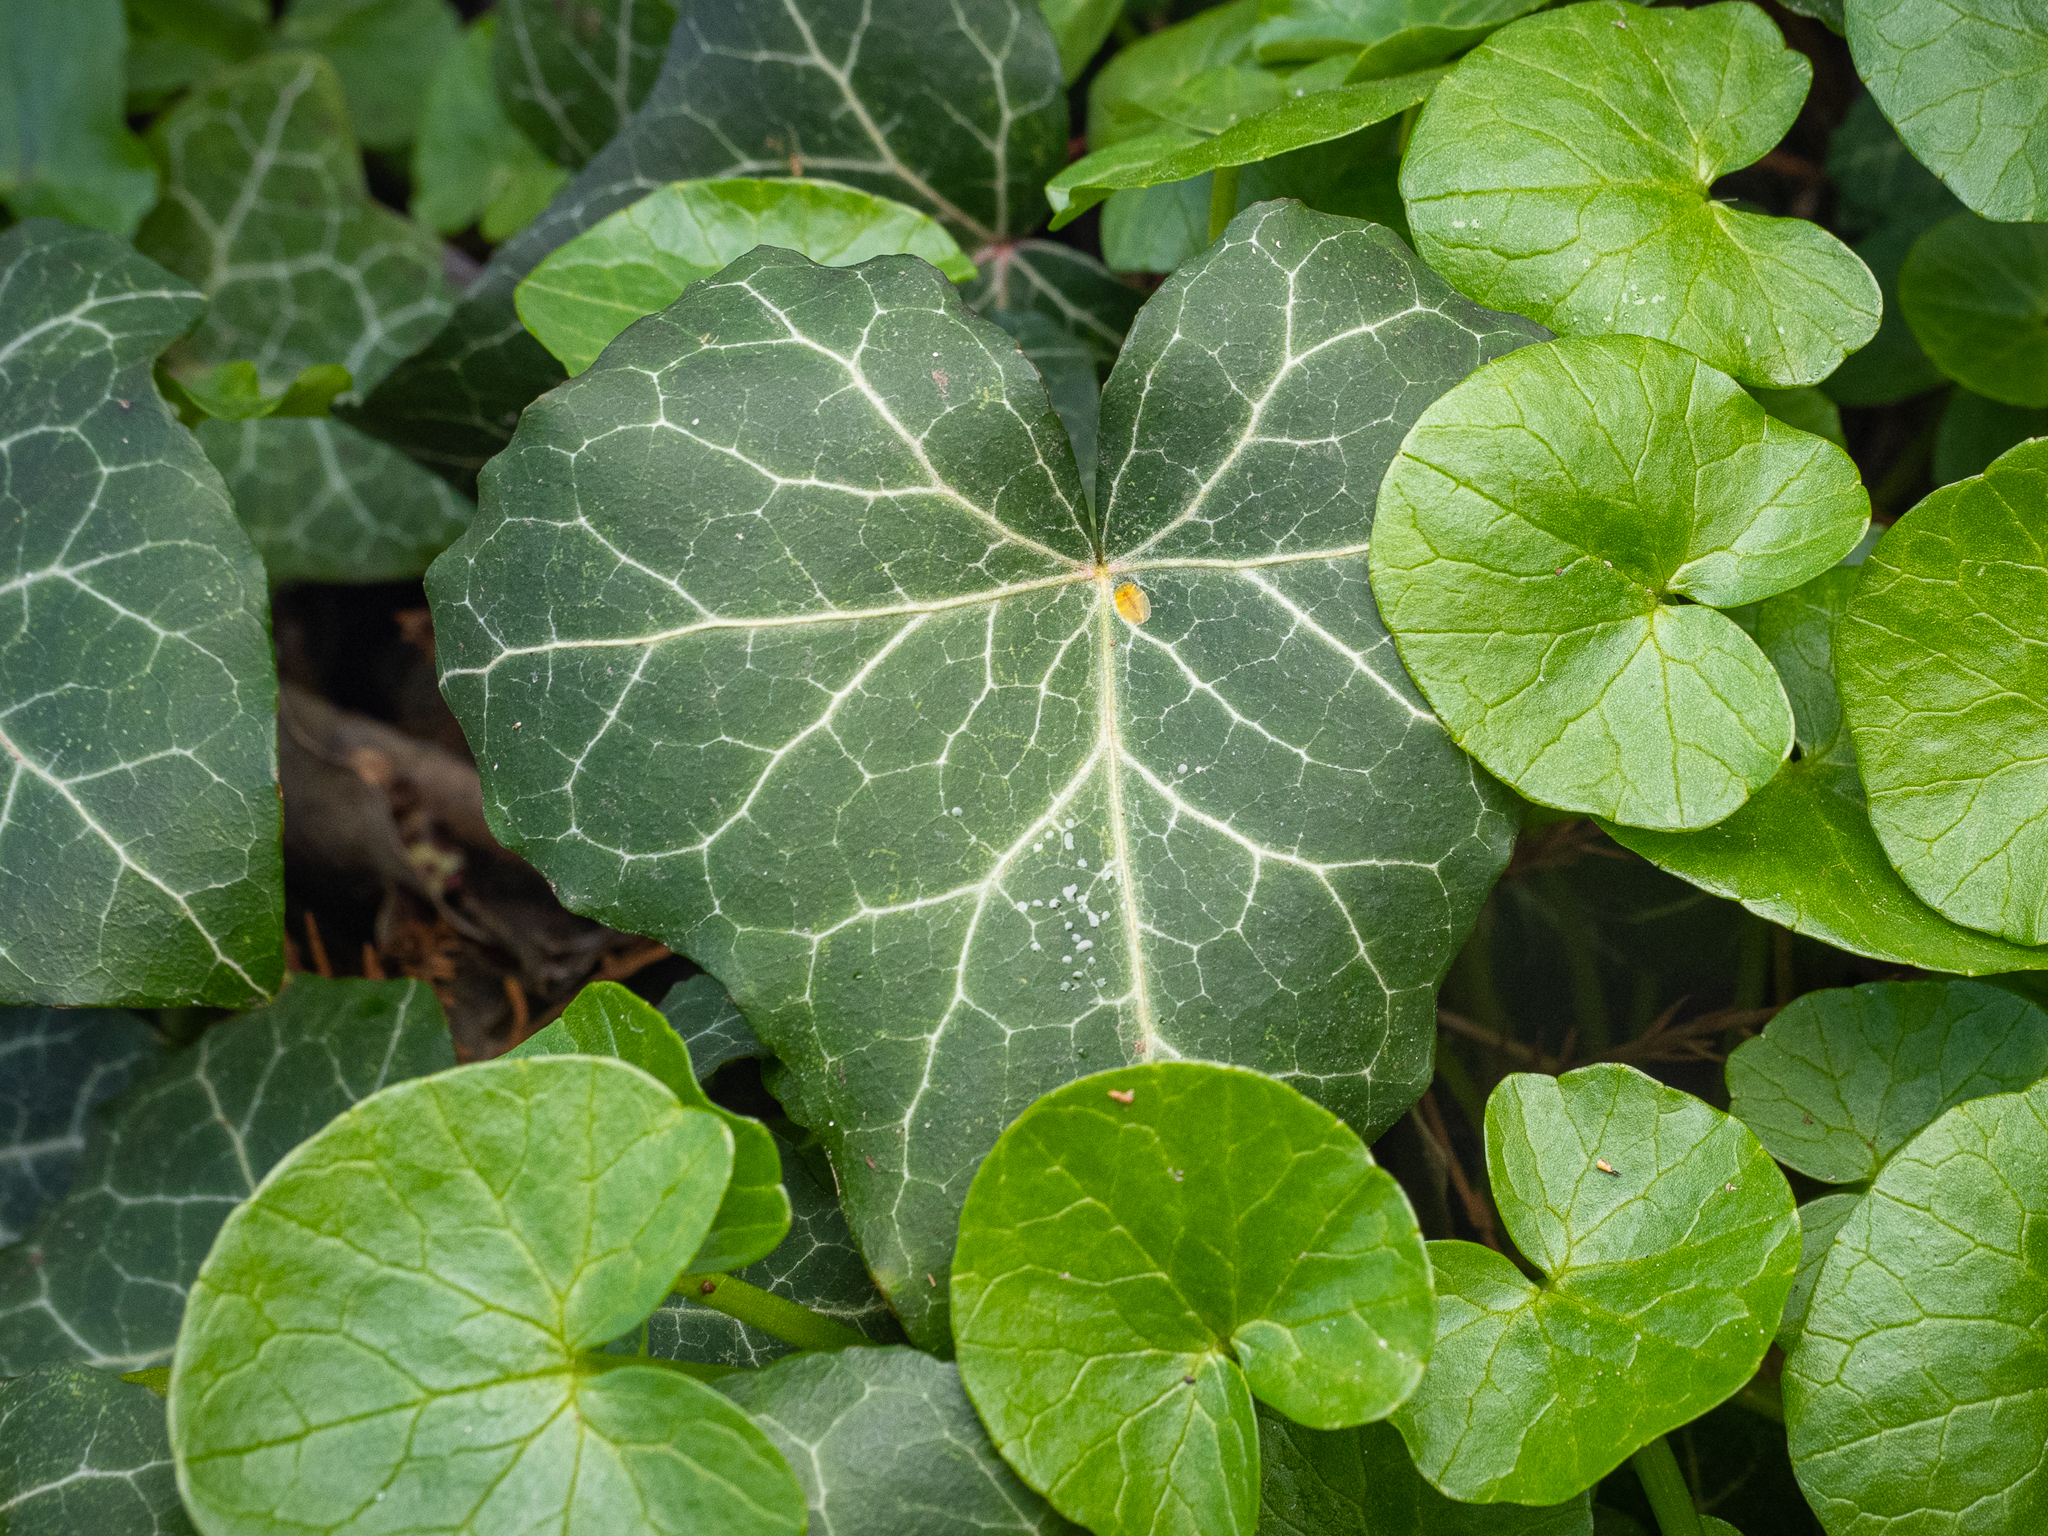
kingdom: Plantae
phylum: Tracheophyta
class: Magnoliopsida
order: Apiales
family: Araliaceae
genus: Hedera
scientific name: Hedera helix
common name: Ivy
